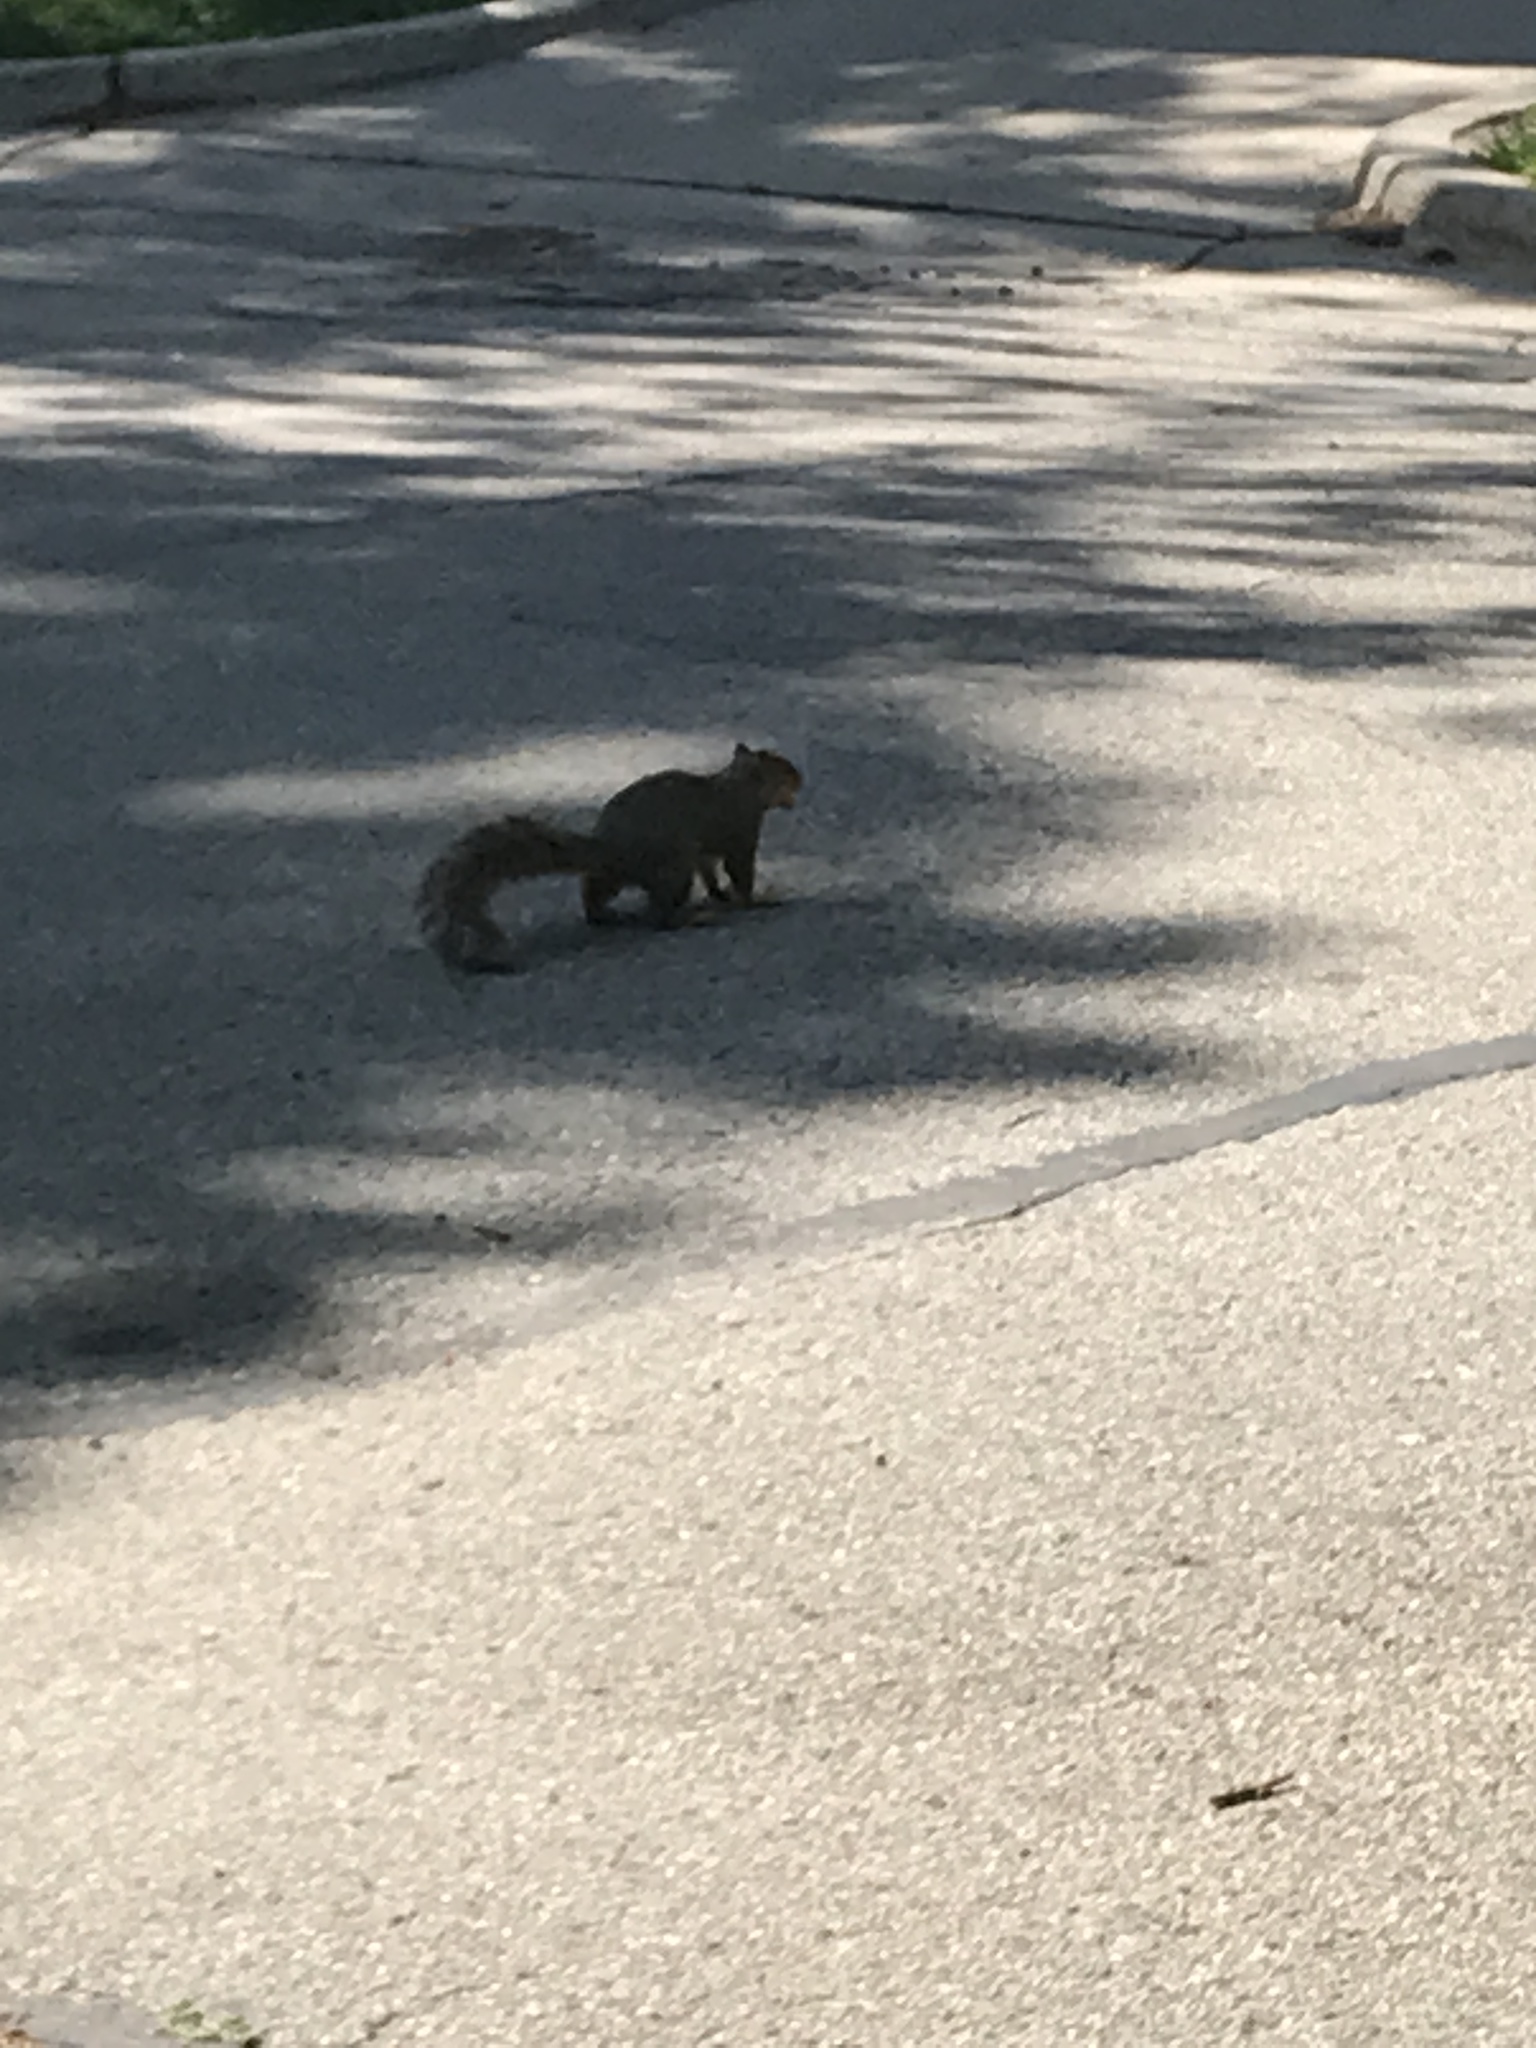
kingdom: Animalia
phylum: Chordata
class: Mammalia
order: Rodentia
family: Sciuridae
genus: Sciurus
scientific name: Sciurus niger
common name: Fox squirrel
